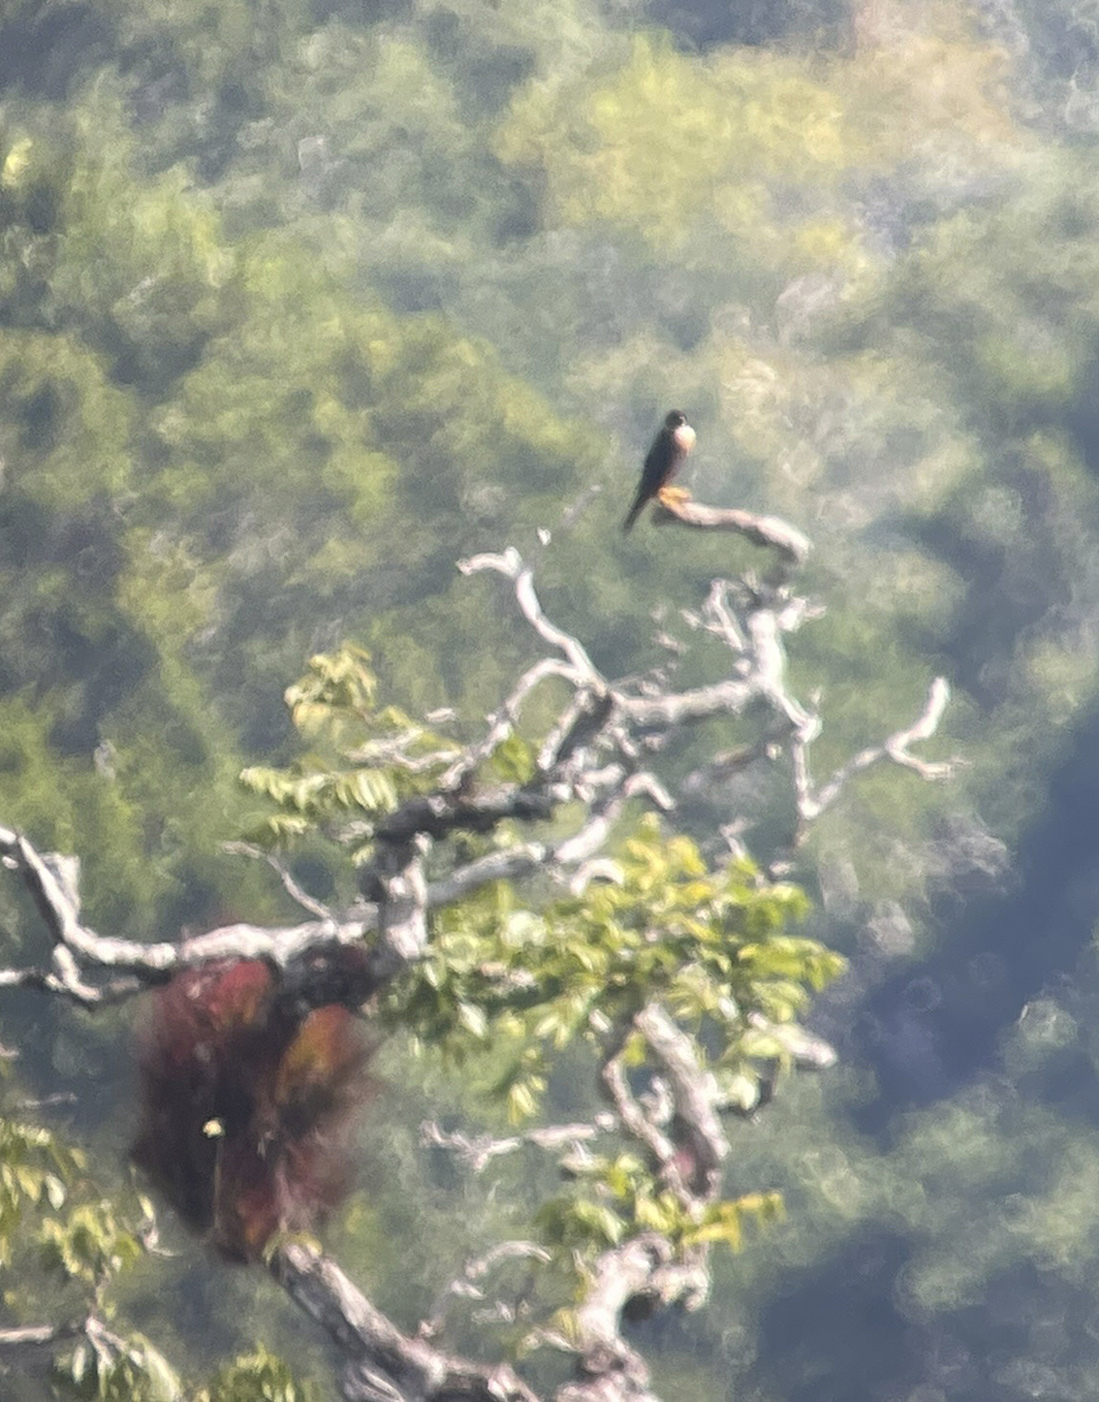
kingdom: Animalia
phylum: Chordata
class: Aves
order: Falconiformes
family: Falconidae
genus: Falco
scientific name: Falco deiroleucus
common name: Orange-breasted falcon
